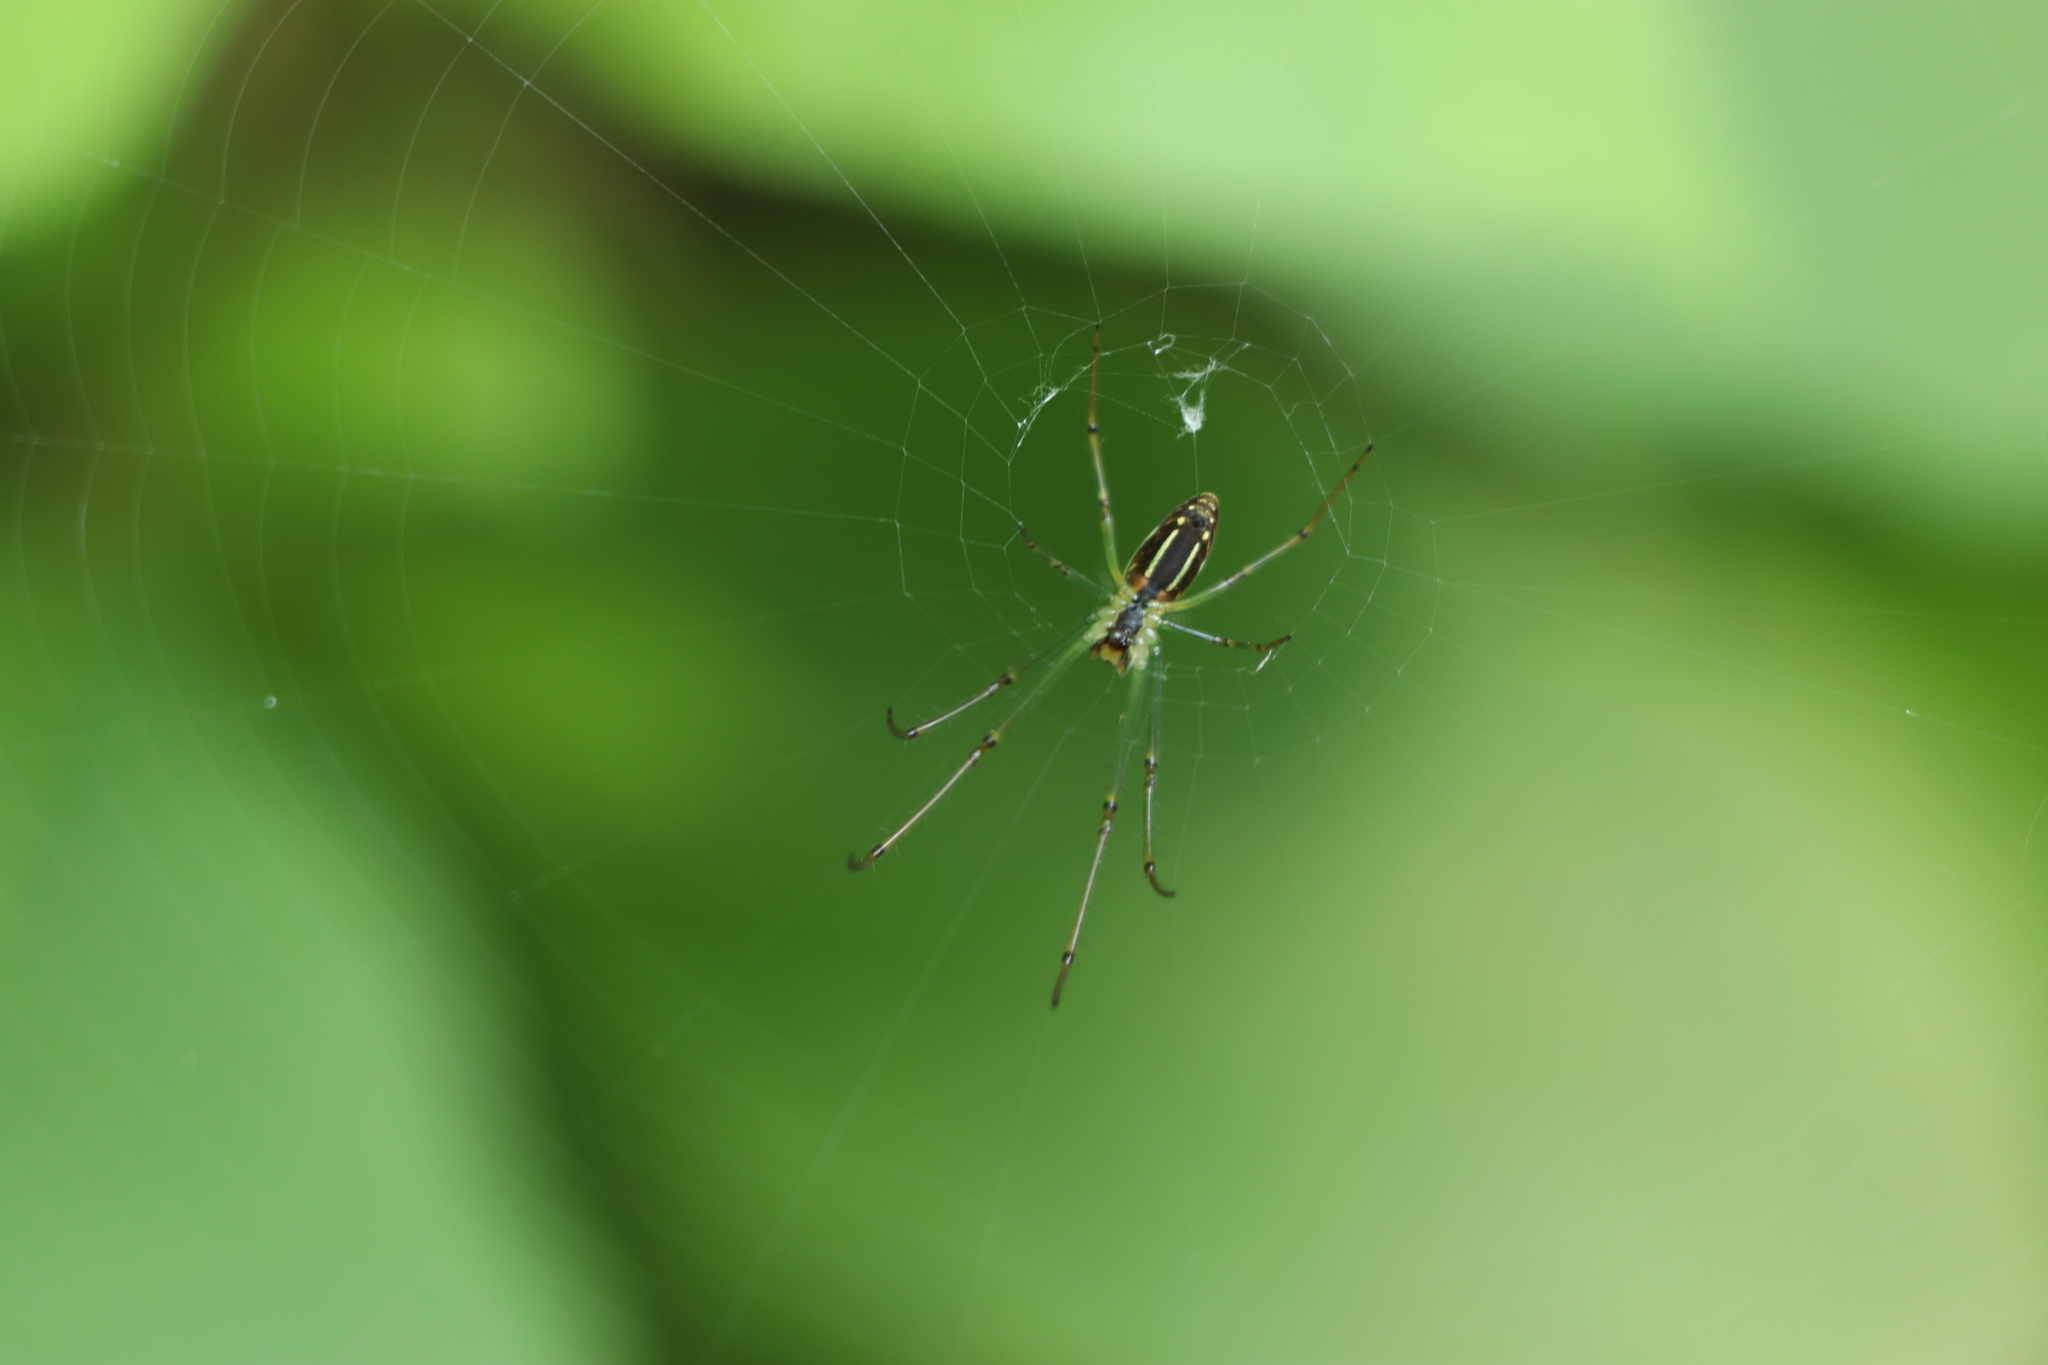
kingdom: Animalia
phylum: Arthropoda
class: Arachnida
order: Araneae
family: Tetragnathidae
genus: Leucauge
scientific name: Leucauge celebesiana
